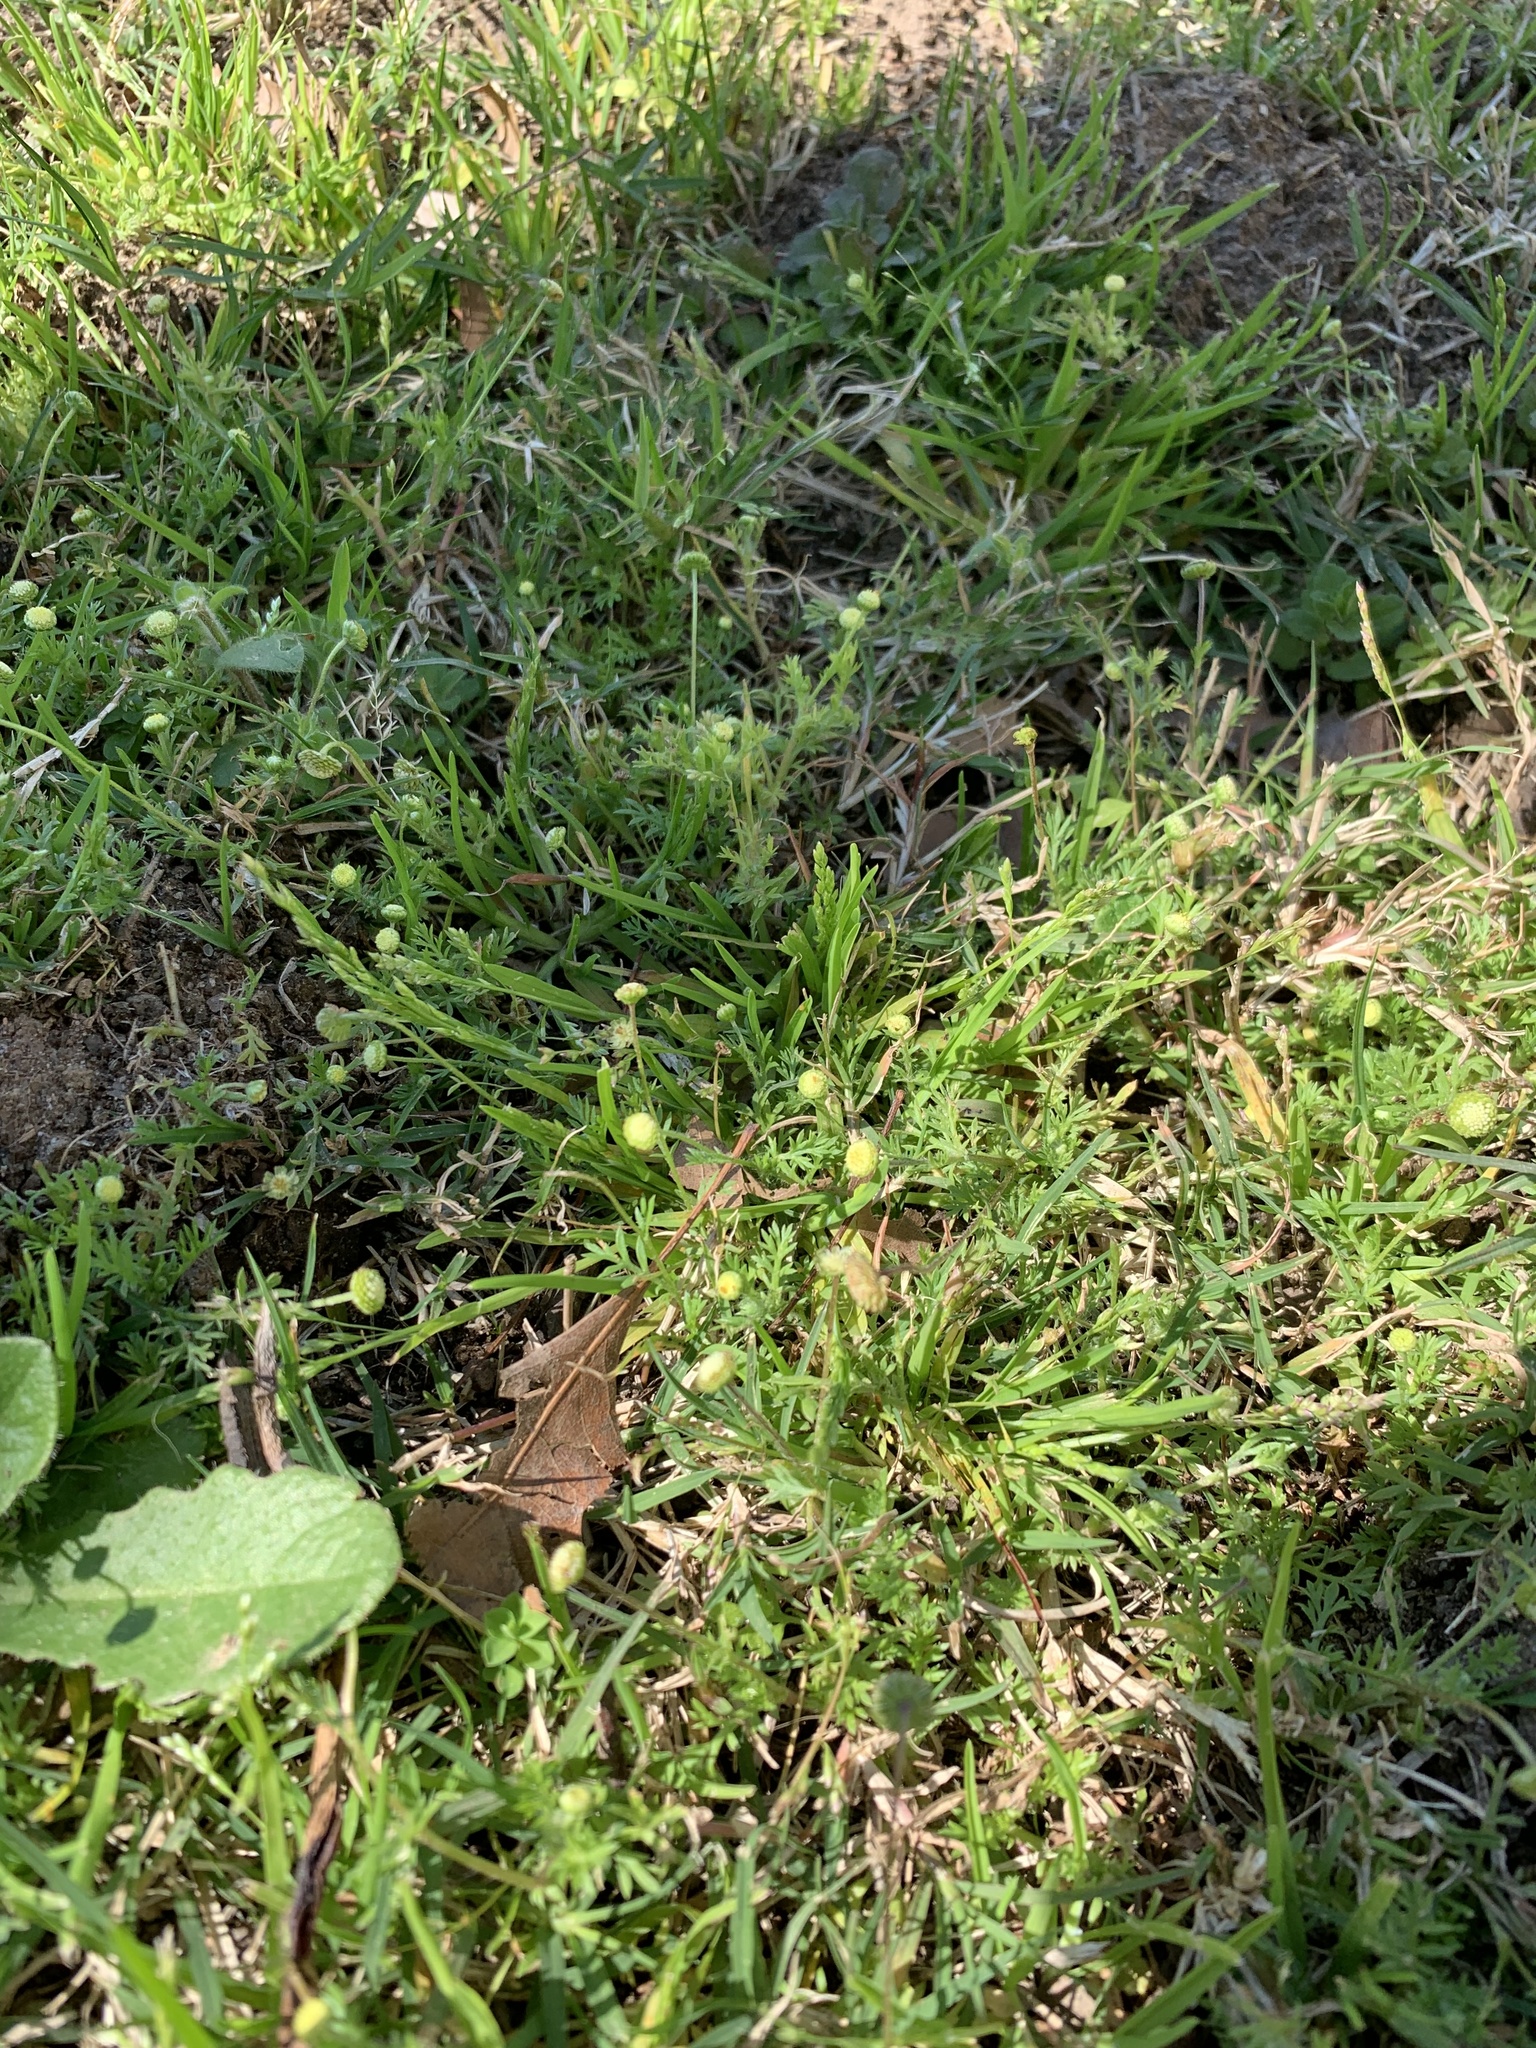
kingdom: Plantae
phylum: Tracheophyta
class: Magnoliopsida
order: Asterales
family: Asteraceae
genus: Cotula
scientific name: Cotula australis
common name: Australian waterbuttons
